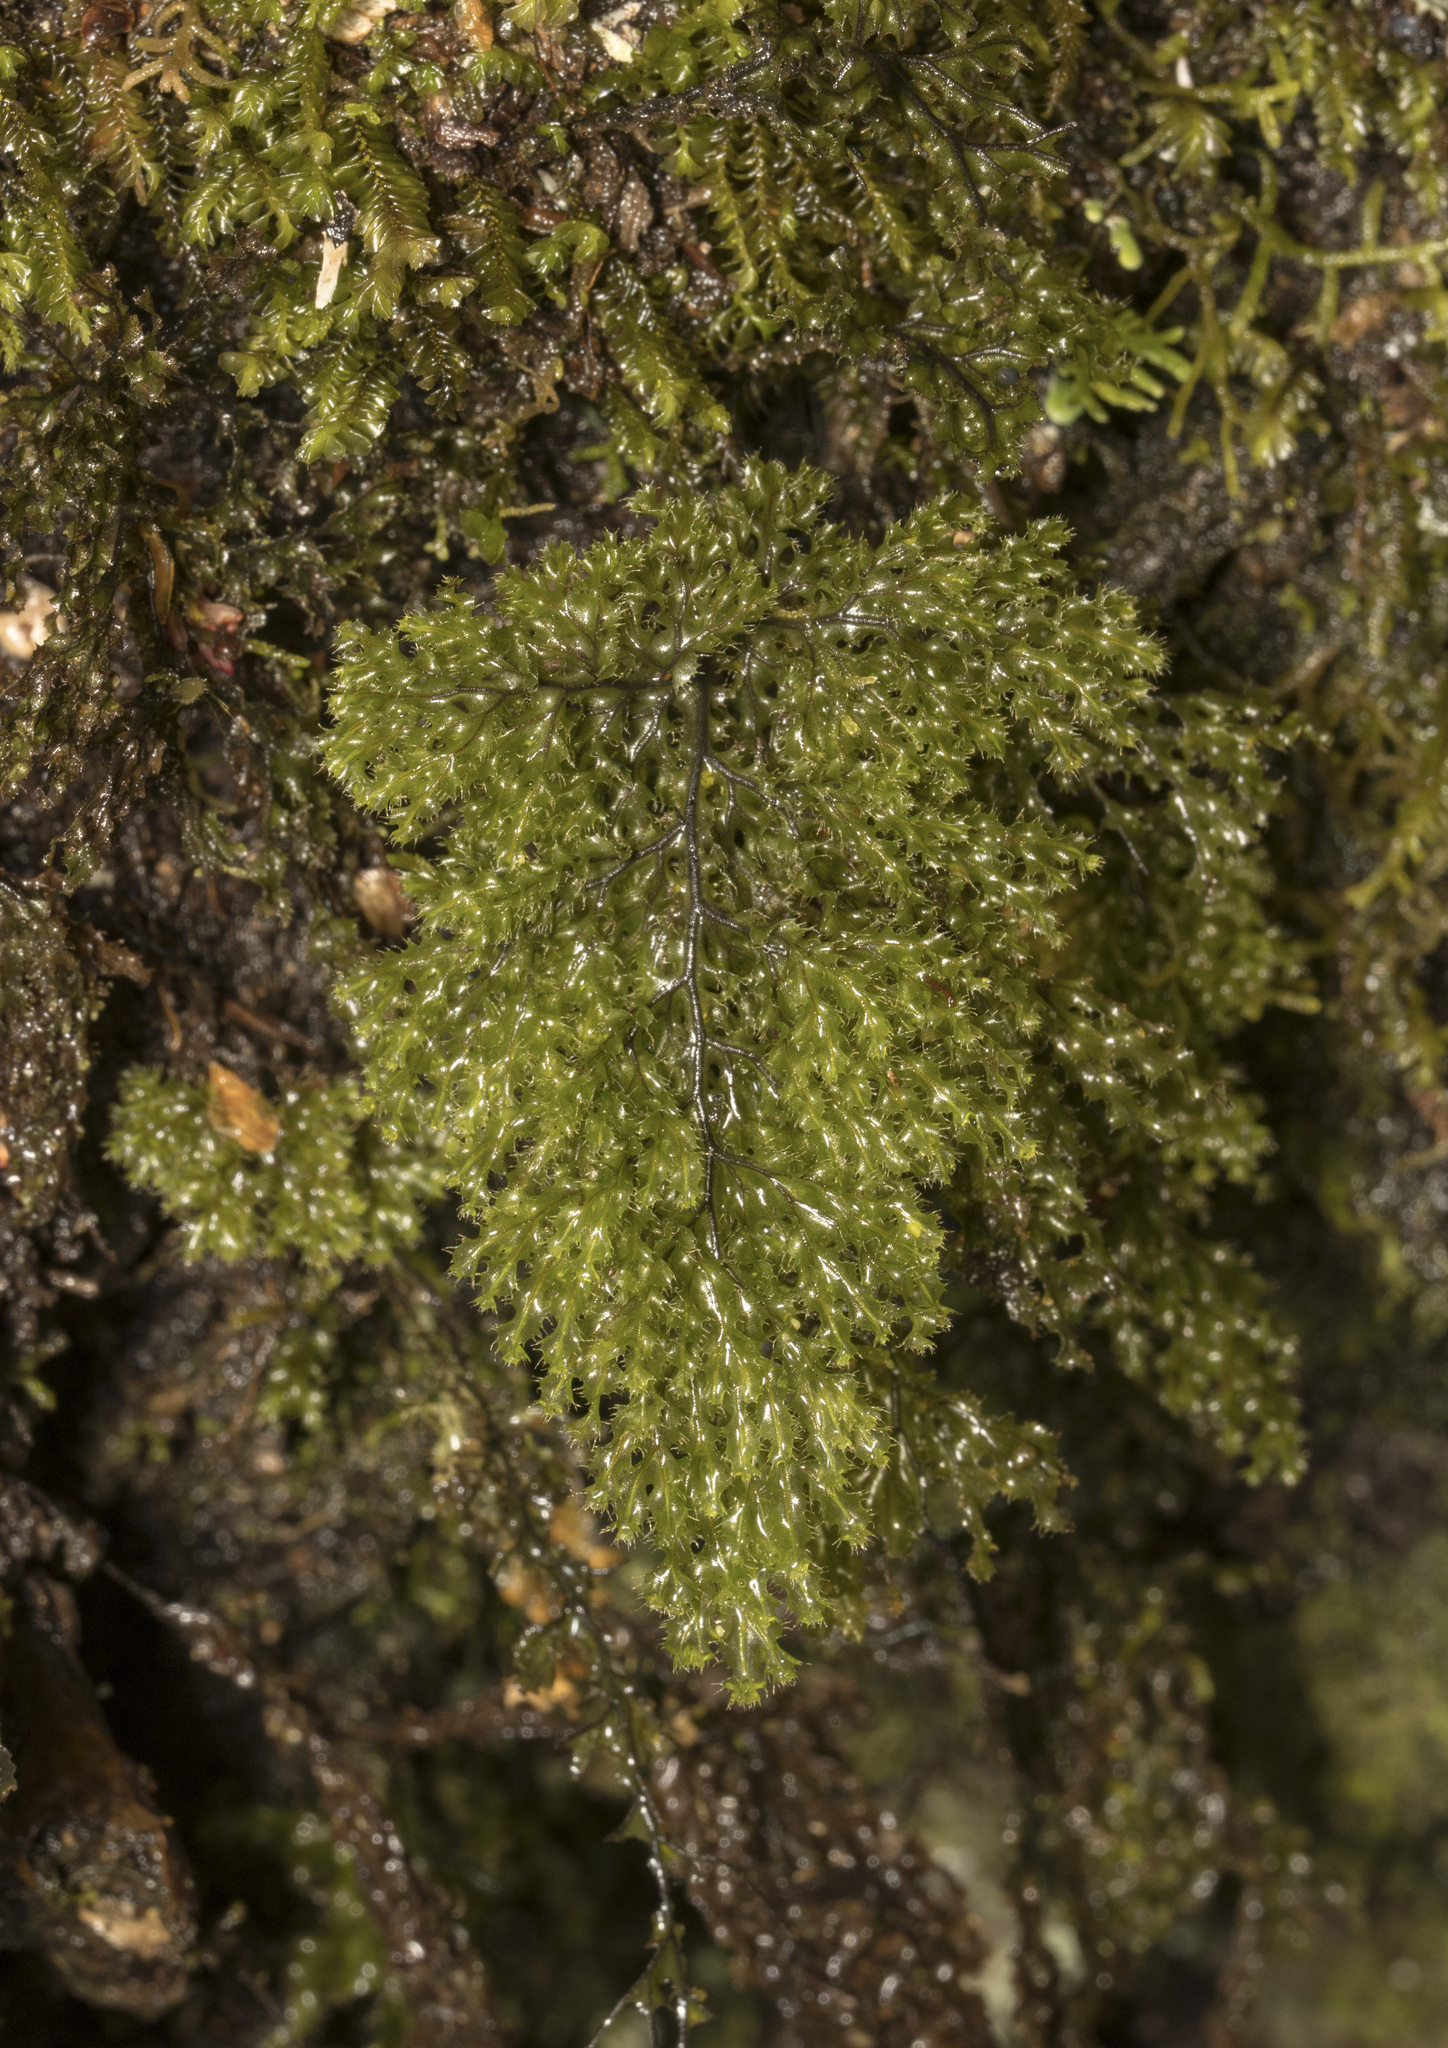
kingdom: Plantae
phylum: Tracheophyta
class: Polypodiopsida
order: Hymenophyllales
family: Hymenophyllaceae
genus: Hymenophyllum
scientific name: Hymenophyllum tortuosum
